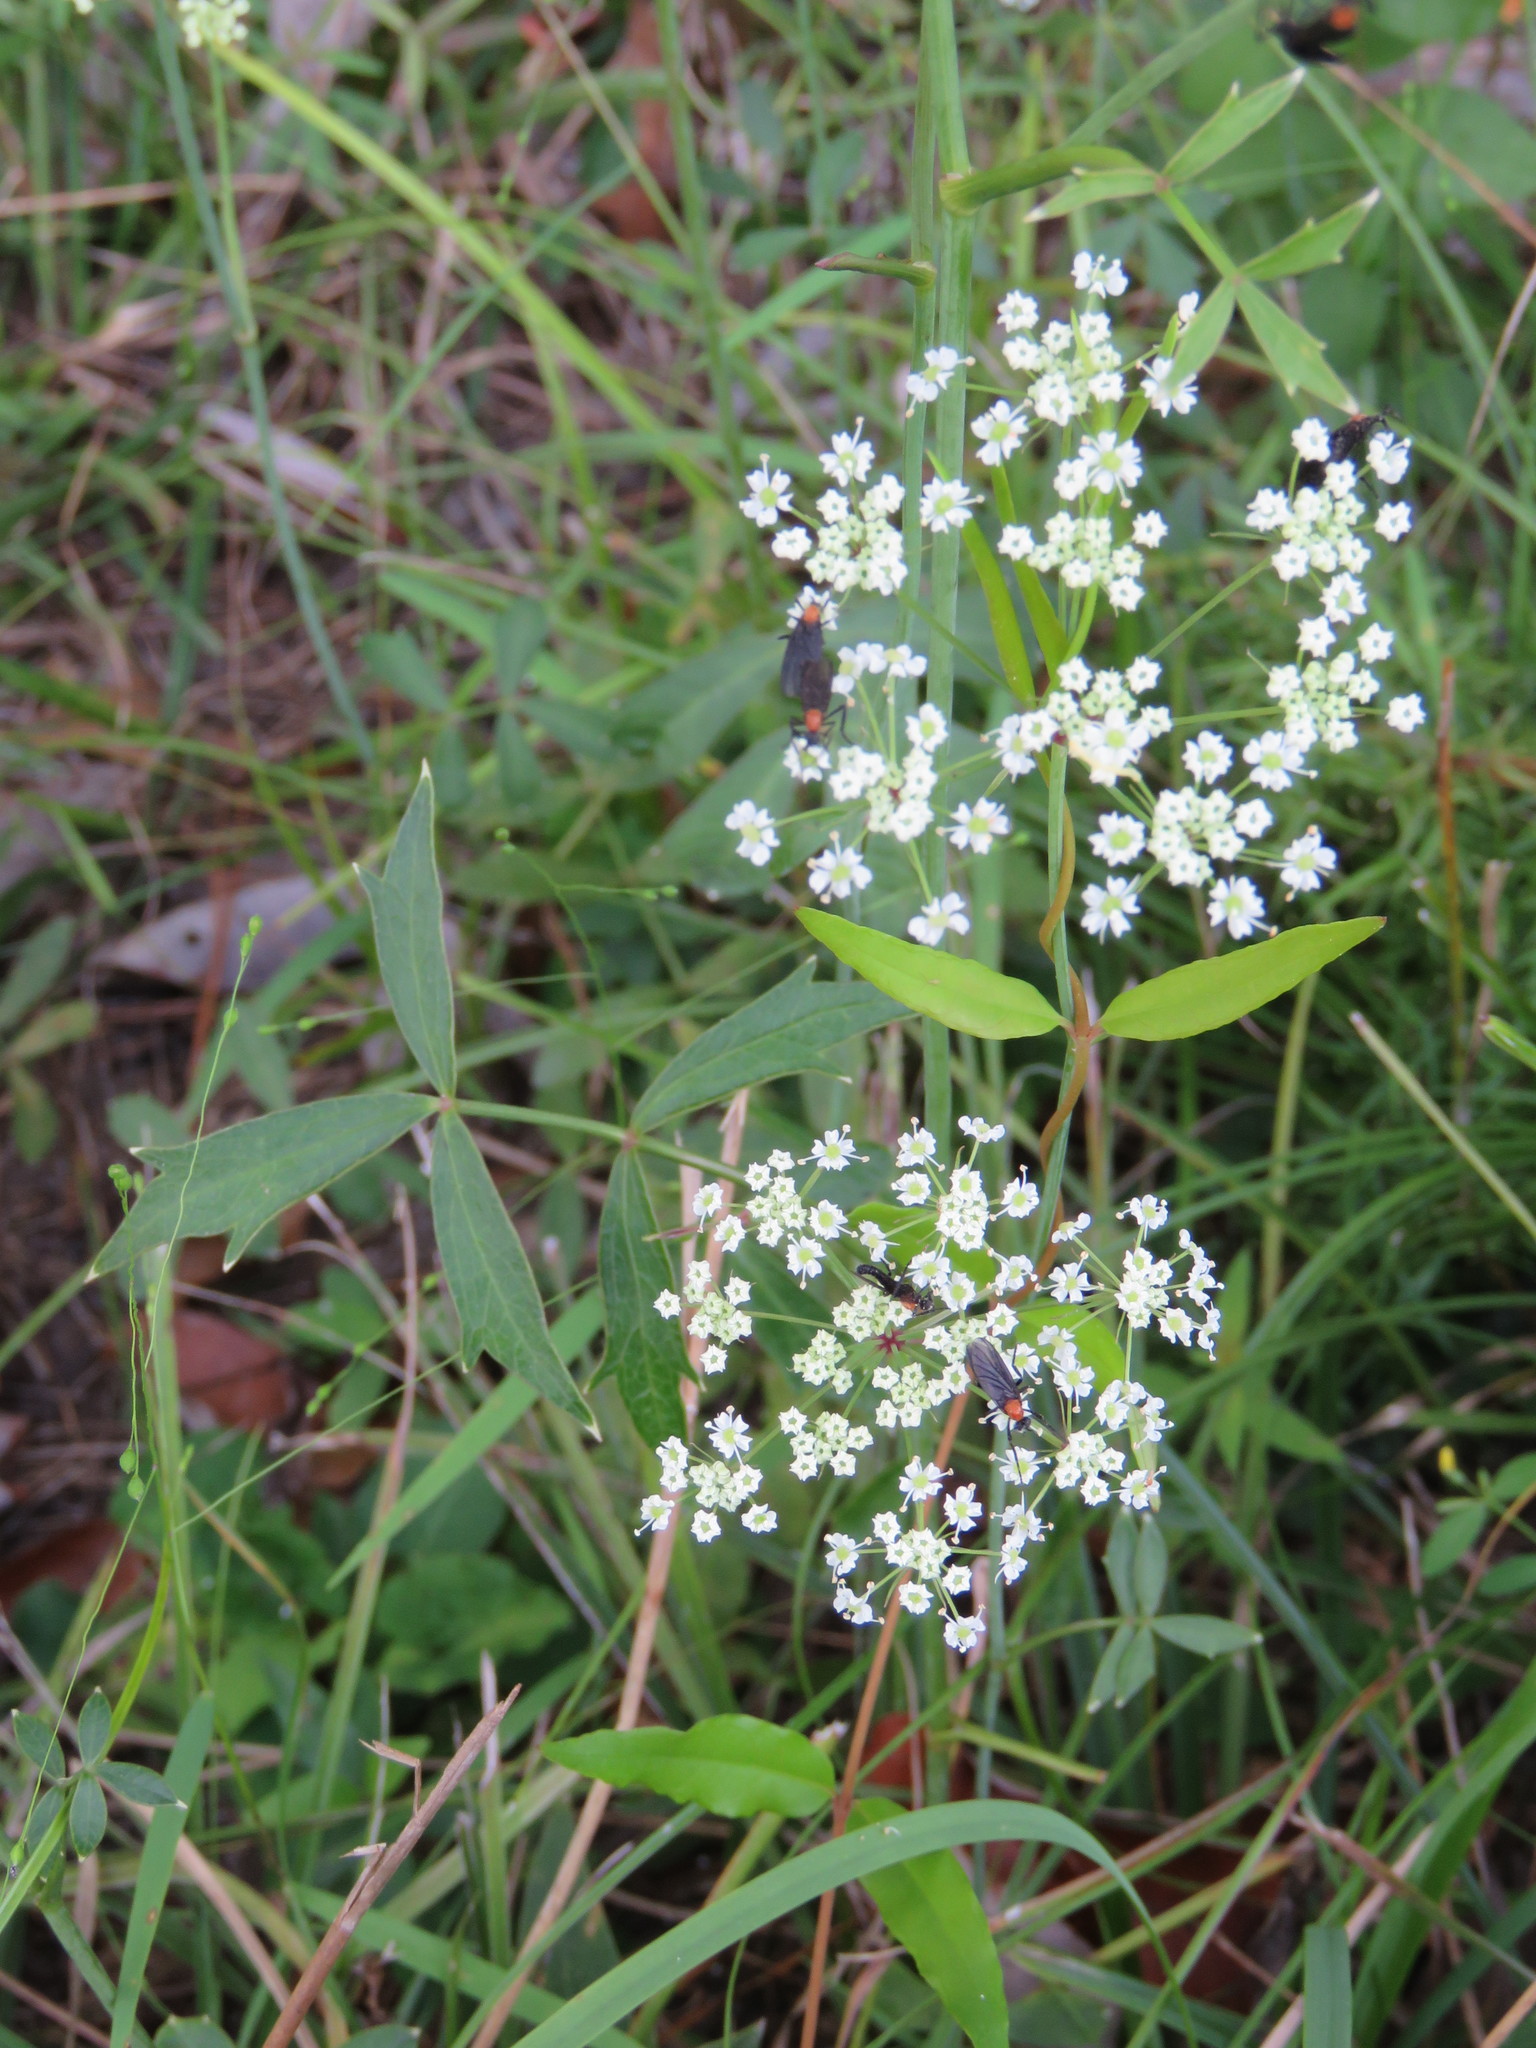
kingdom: Plantae
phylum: Tracheophyta
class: Magnoliopsida
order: Apiales
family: Apiaceae
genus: Oxypolis
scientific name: Oxypolis rigidior
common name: Cowbane
